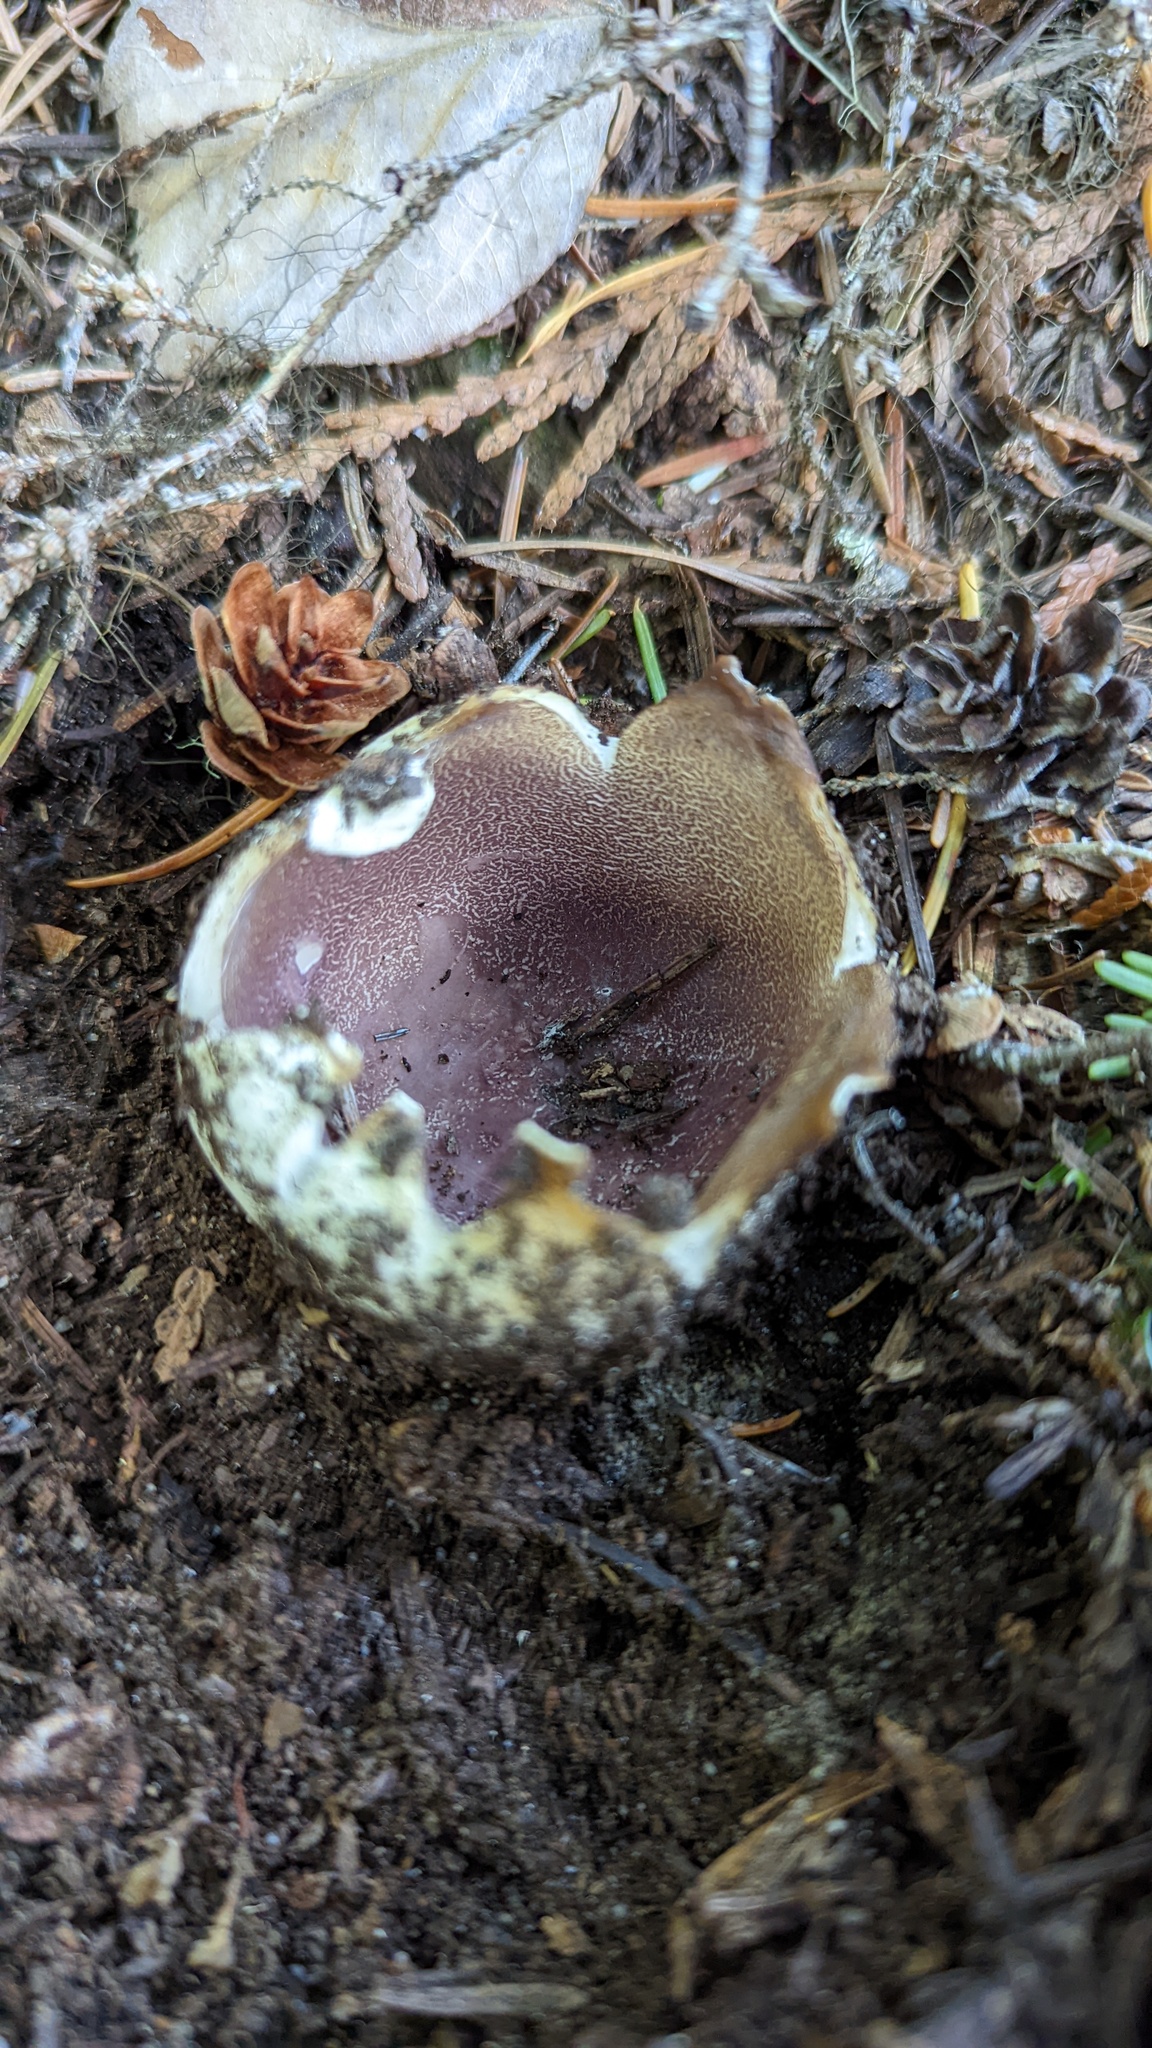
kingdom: Fungi
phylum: Ascomycota
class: Pezizomycetes
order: Pezizales
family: Pezizaceae
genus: Sarcosphaera
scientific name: Sarcosphaera coronaria
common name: Violet crowncup
